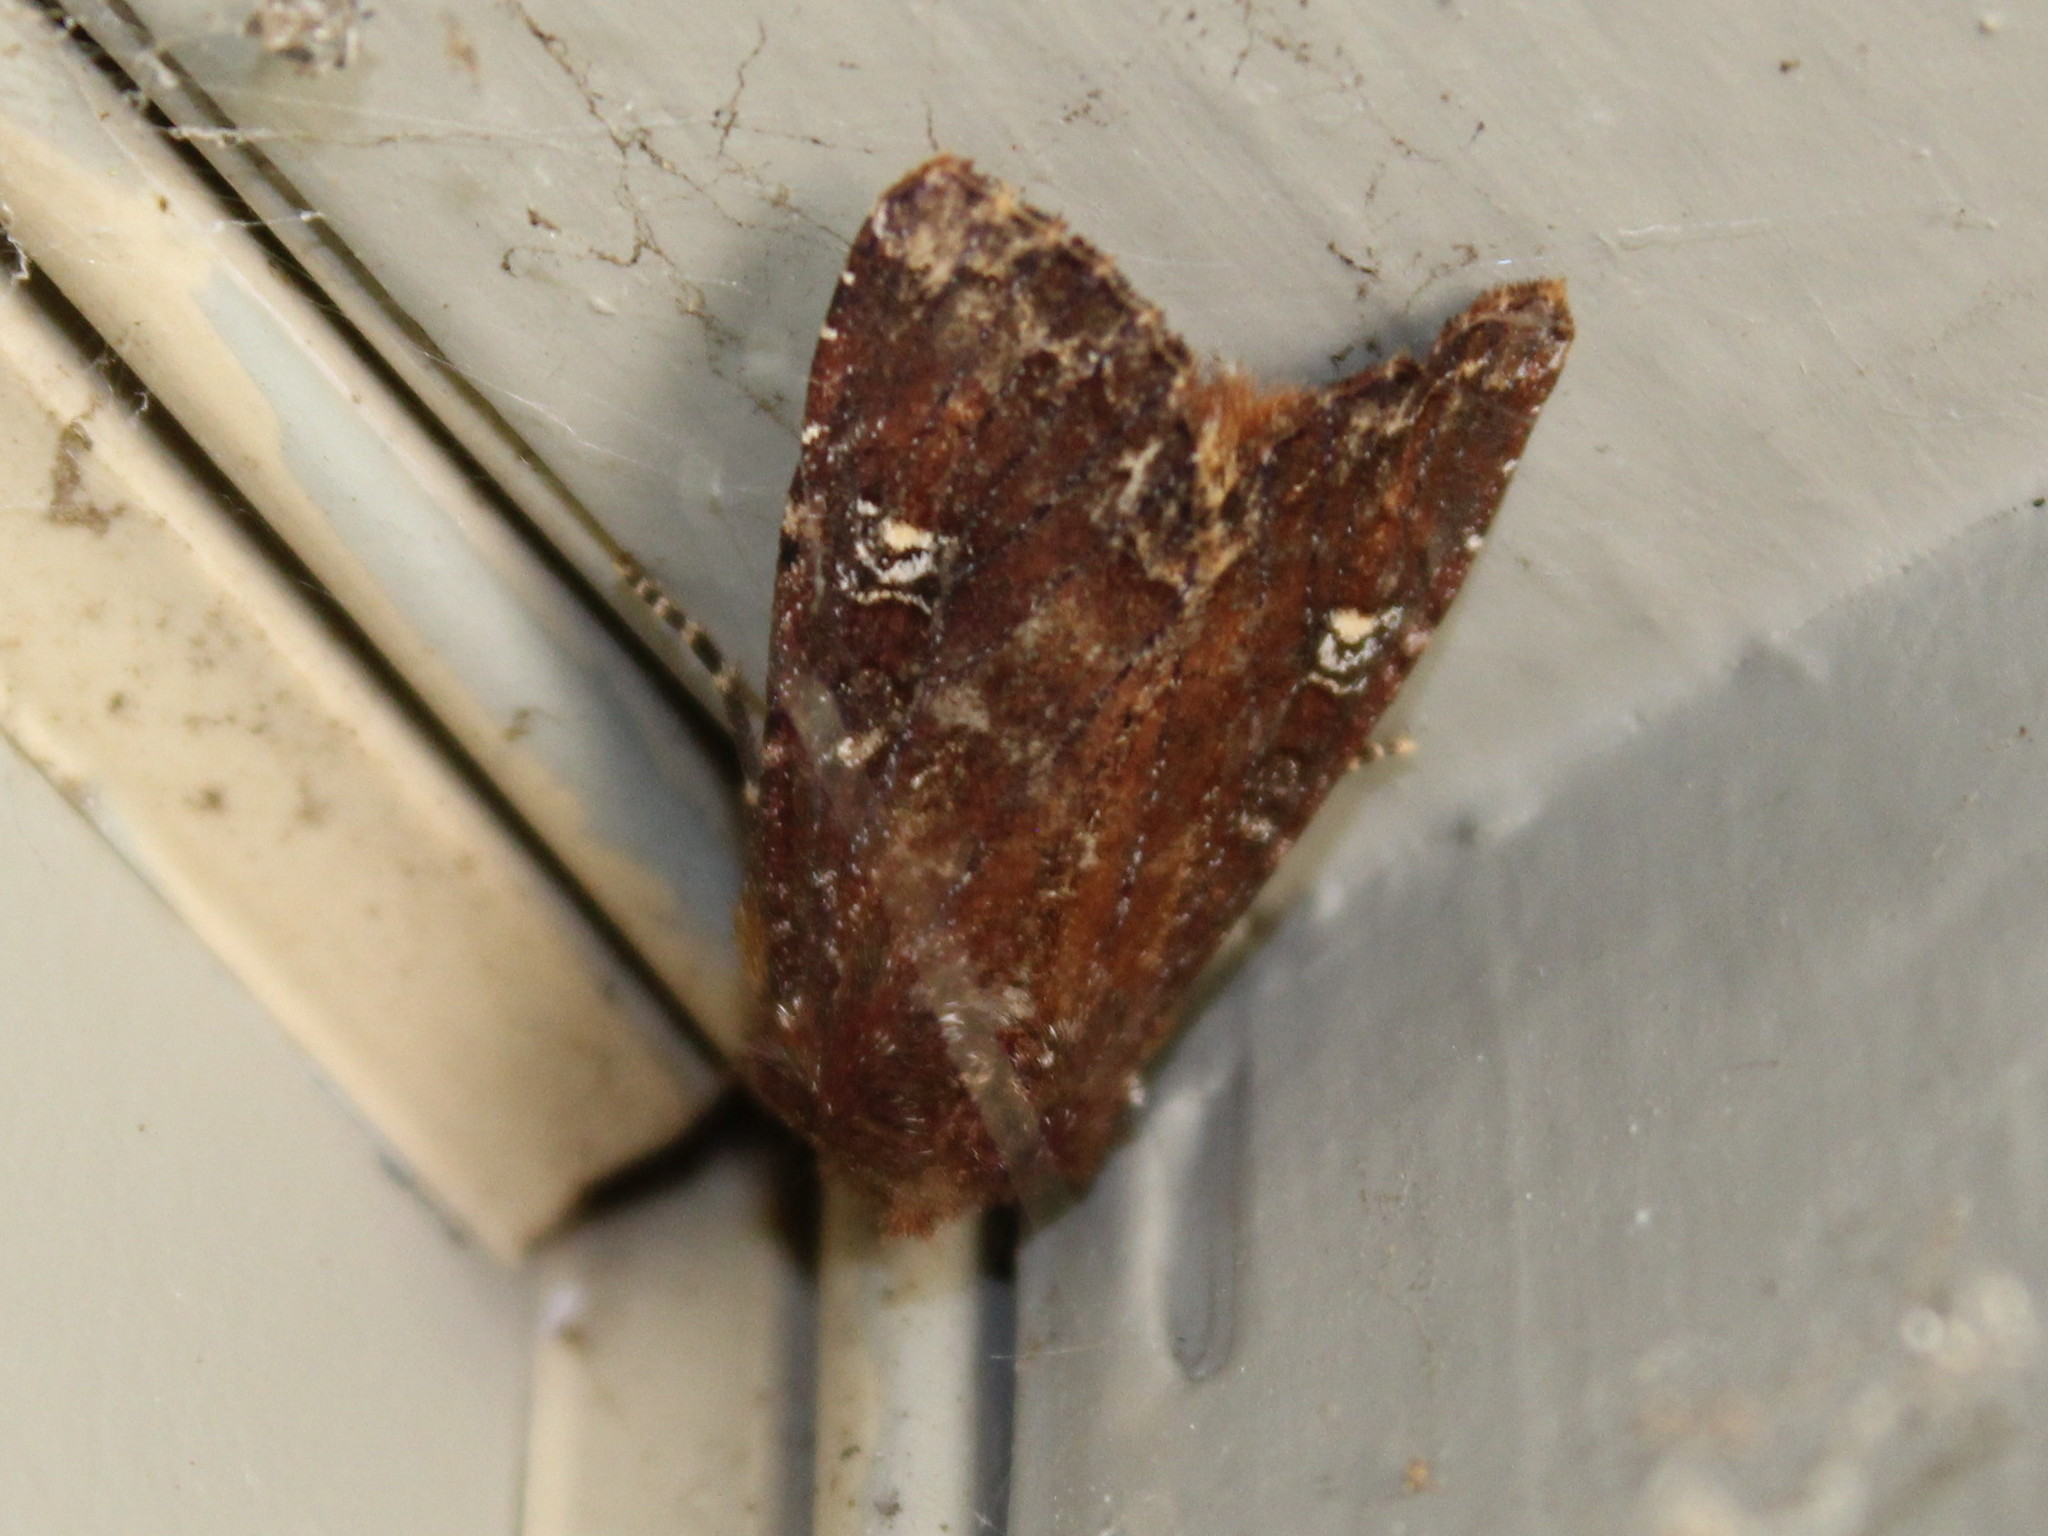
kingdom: Animalia
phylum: Arthropoda
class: Insecta
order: Lepidoptera
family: Noctuidae
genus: Apamea
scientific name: Apamea dubitans
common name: Doubtful apamea moth
